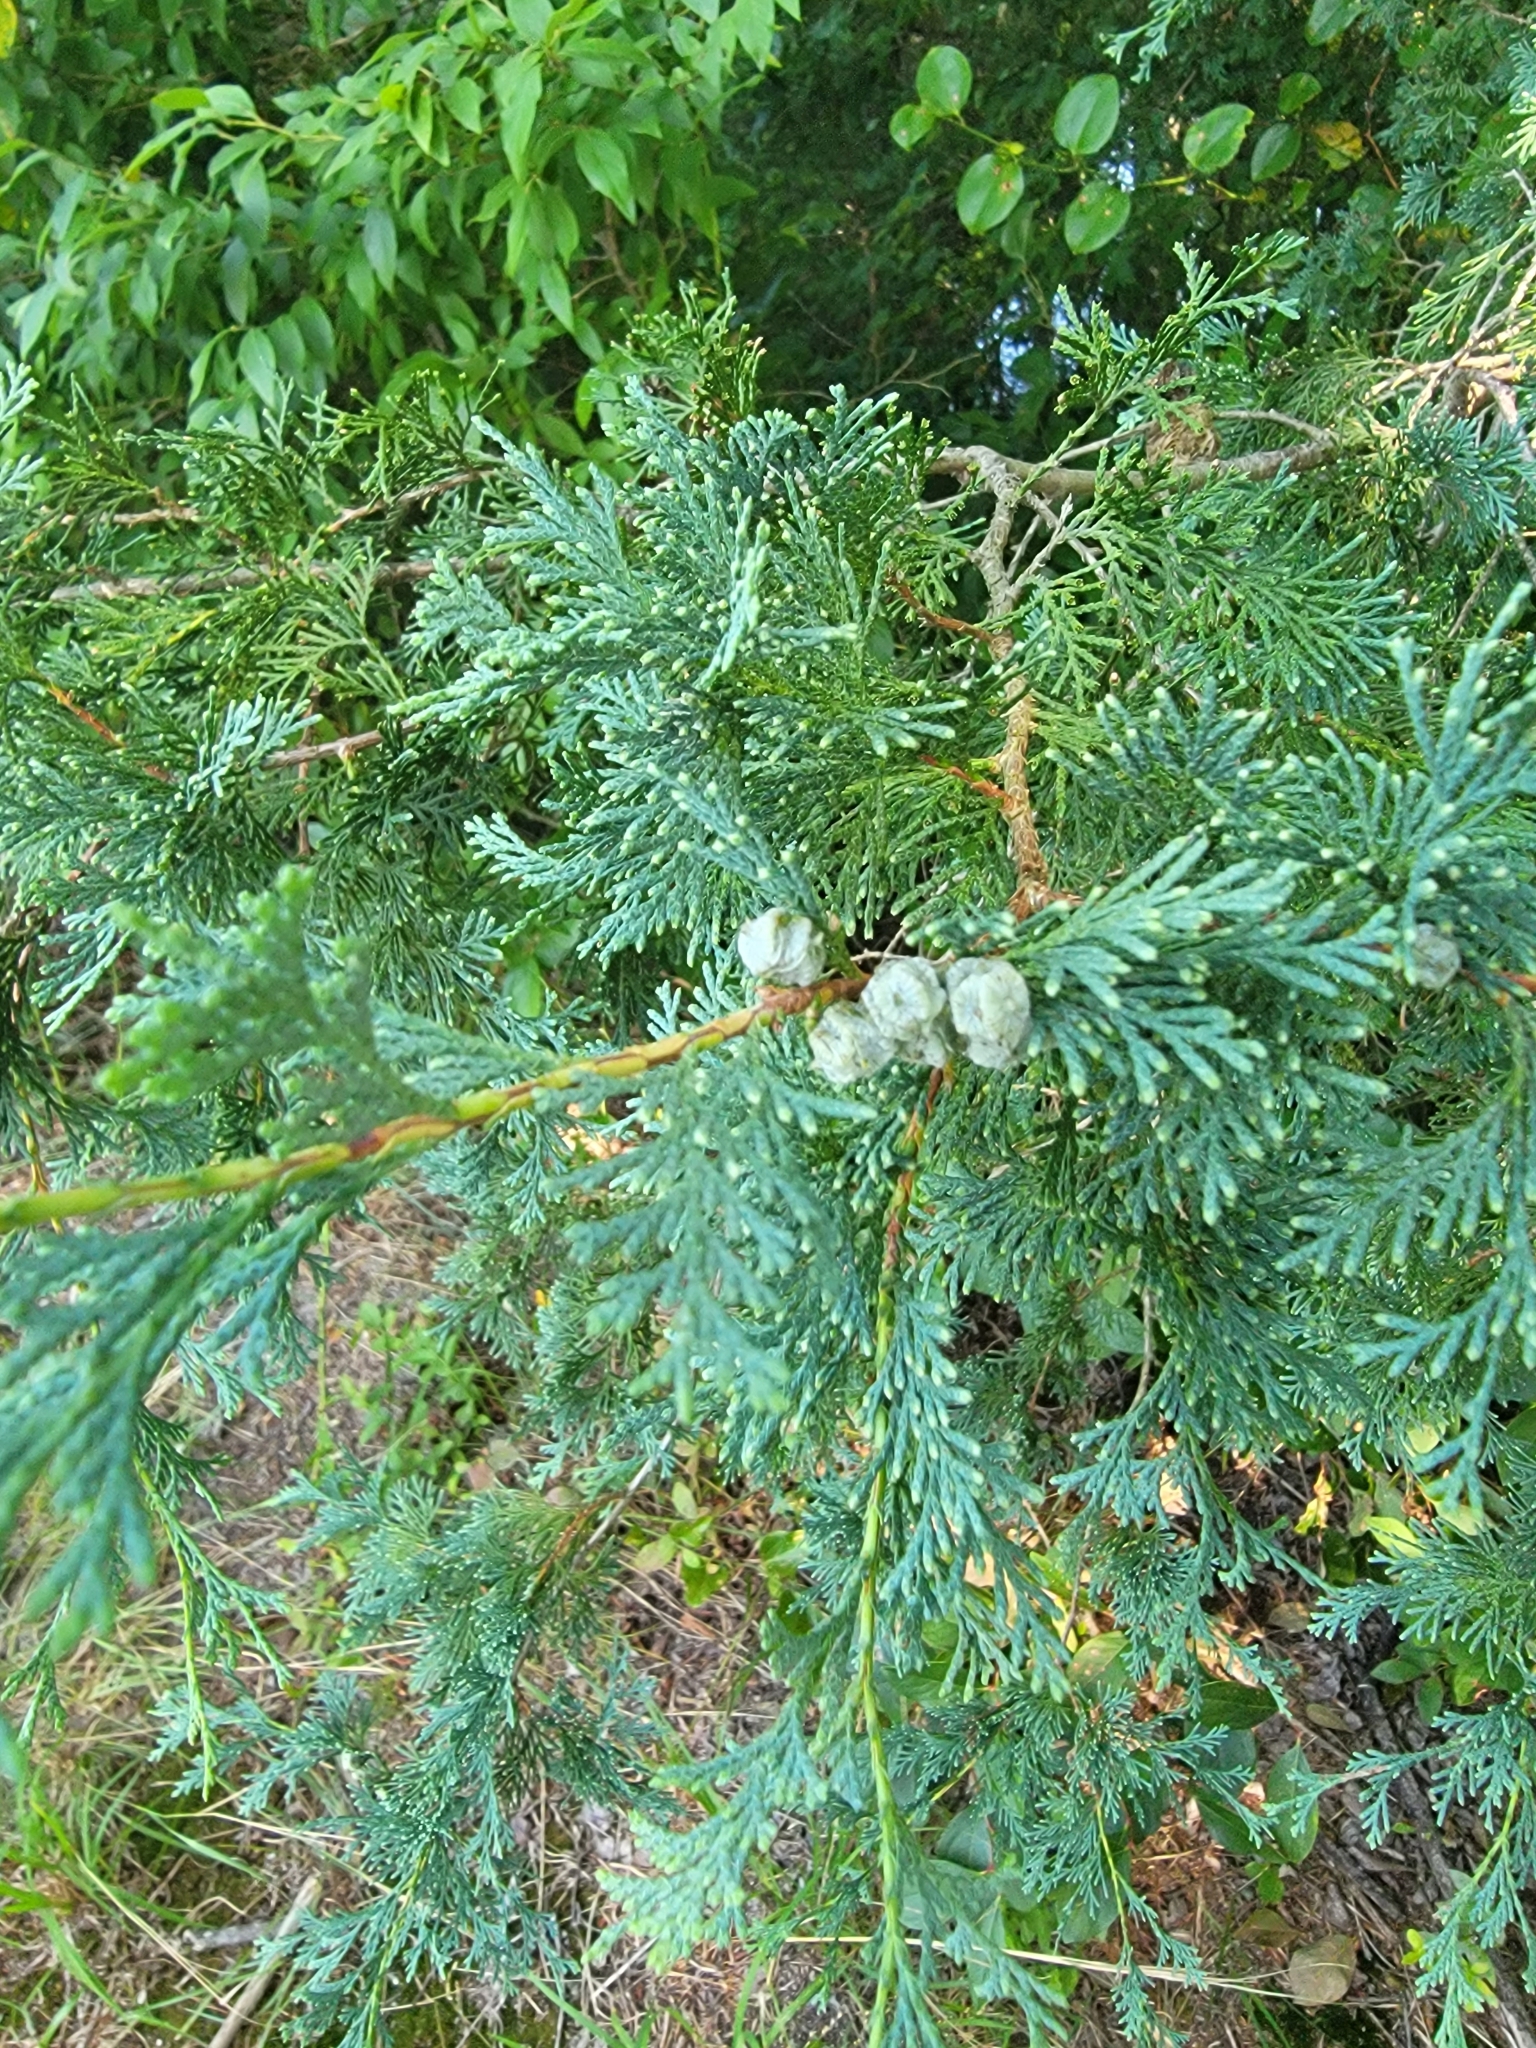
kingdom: Plantae
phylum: Tracheophyta
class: Pinopsida
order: Pinales
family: Cupressaceae
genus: Chamaecyparis
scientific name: Chamaecyparis thyoides
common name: Atlantic white cedar
